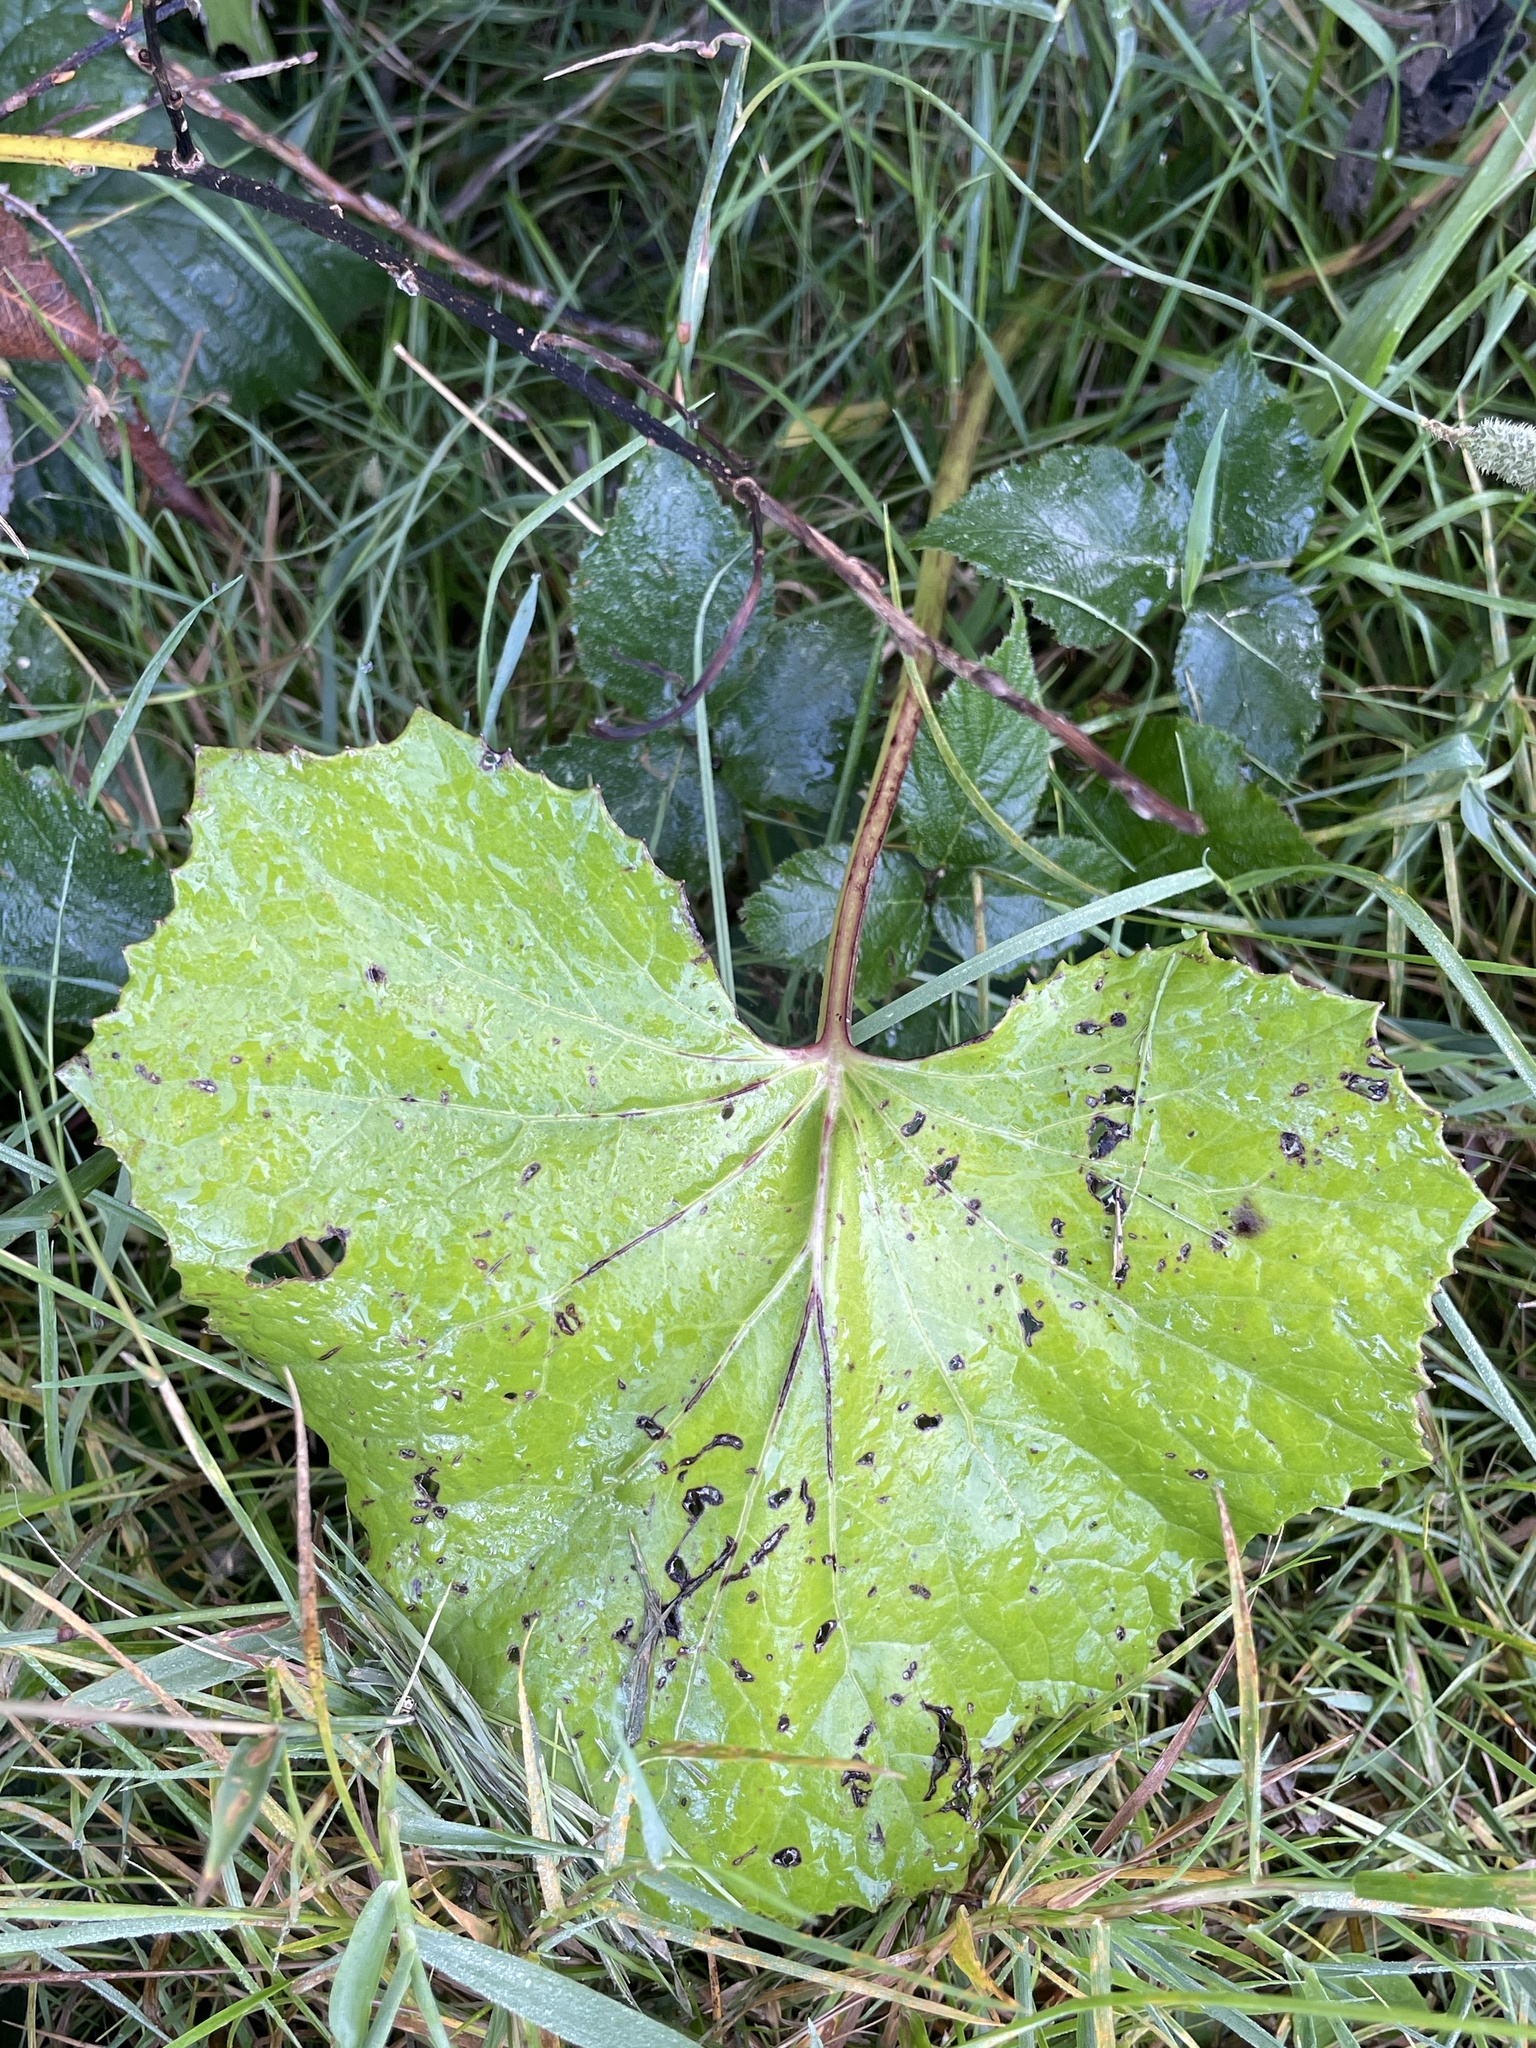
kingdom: Plantae
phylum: Tracheophyta
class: Magnoliopsida
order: Asterales
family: Asteraceae
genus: Tussilago
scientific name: Tussilago farfara
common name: Coltsfoot
